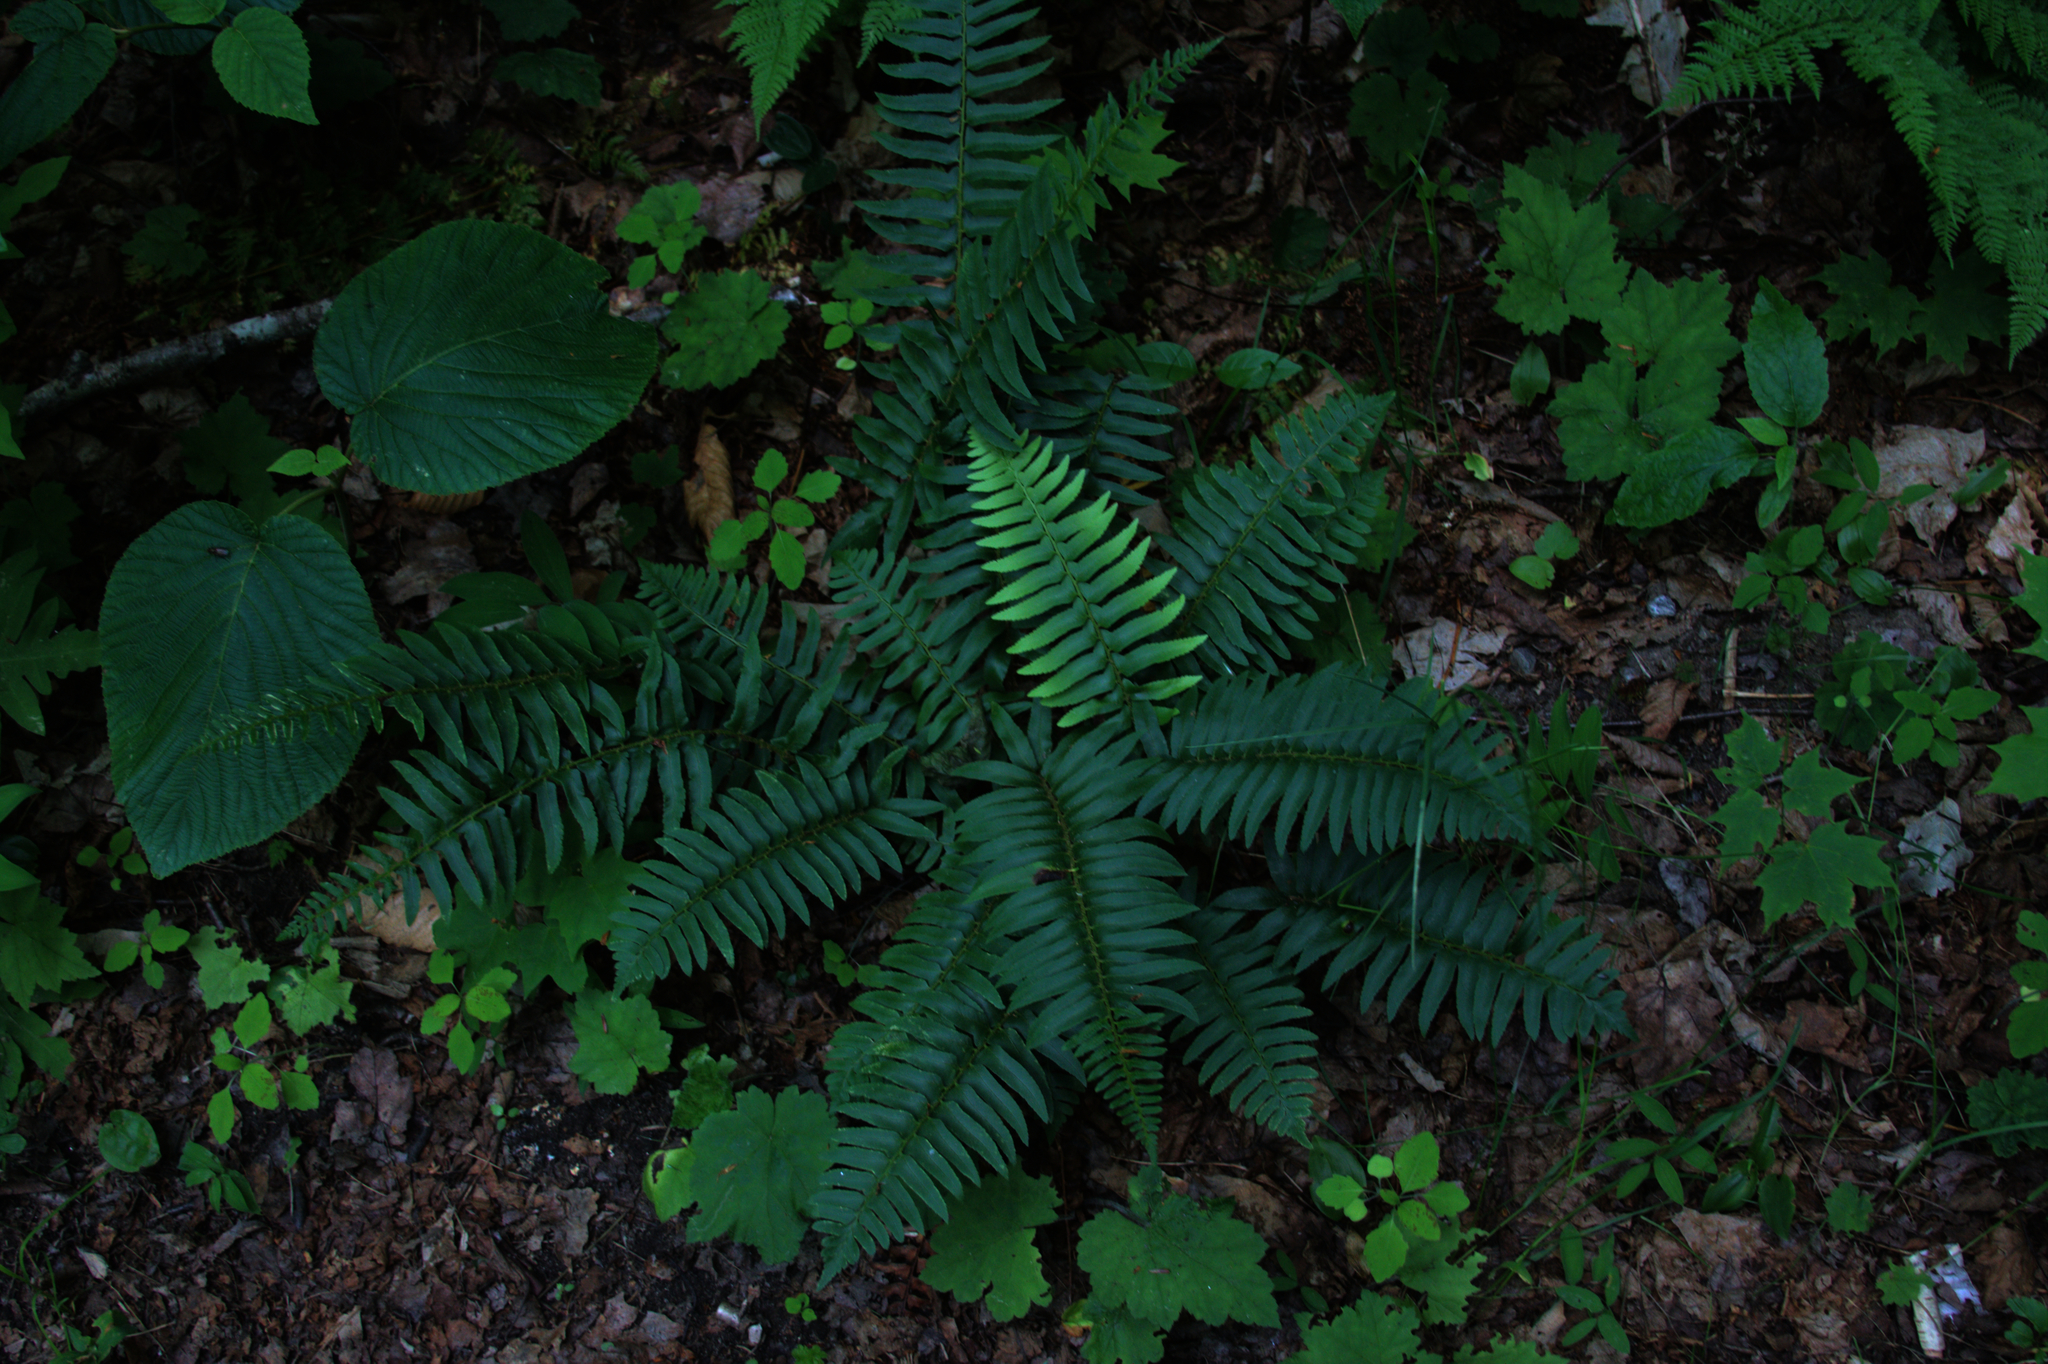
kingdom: Plantae
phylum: Tracheophyta
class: Polypodiopsida
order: Polypodiales
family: Dryopteridaceae
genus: Polystichum
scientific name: Polystichum acrostichoides
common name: Christmas fern
